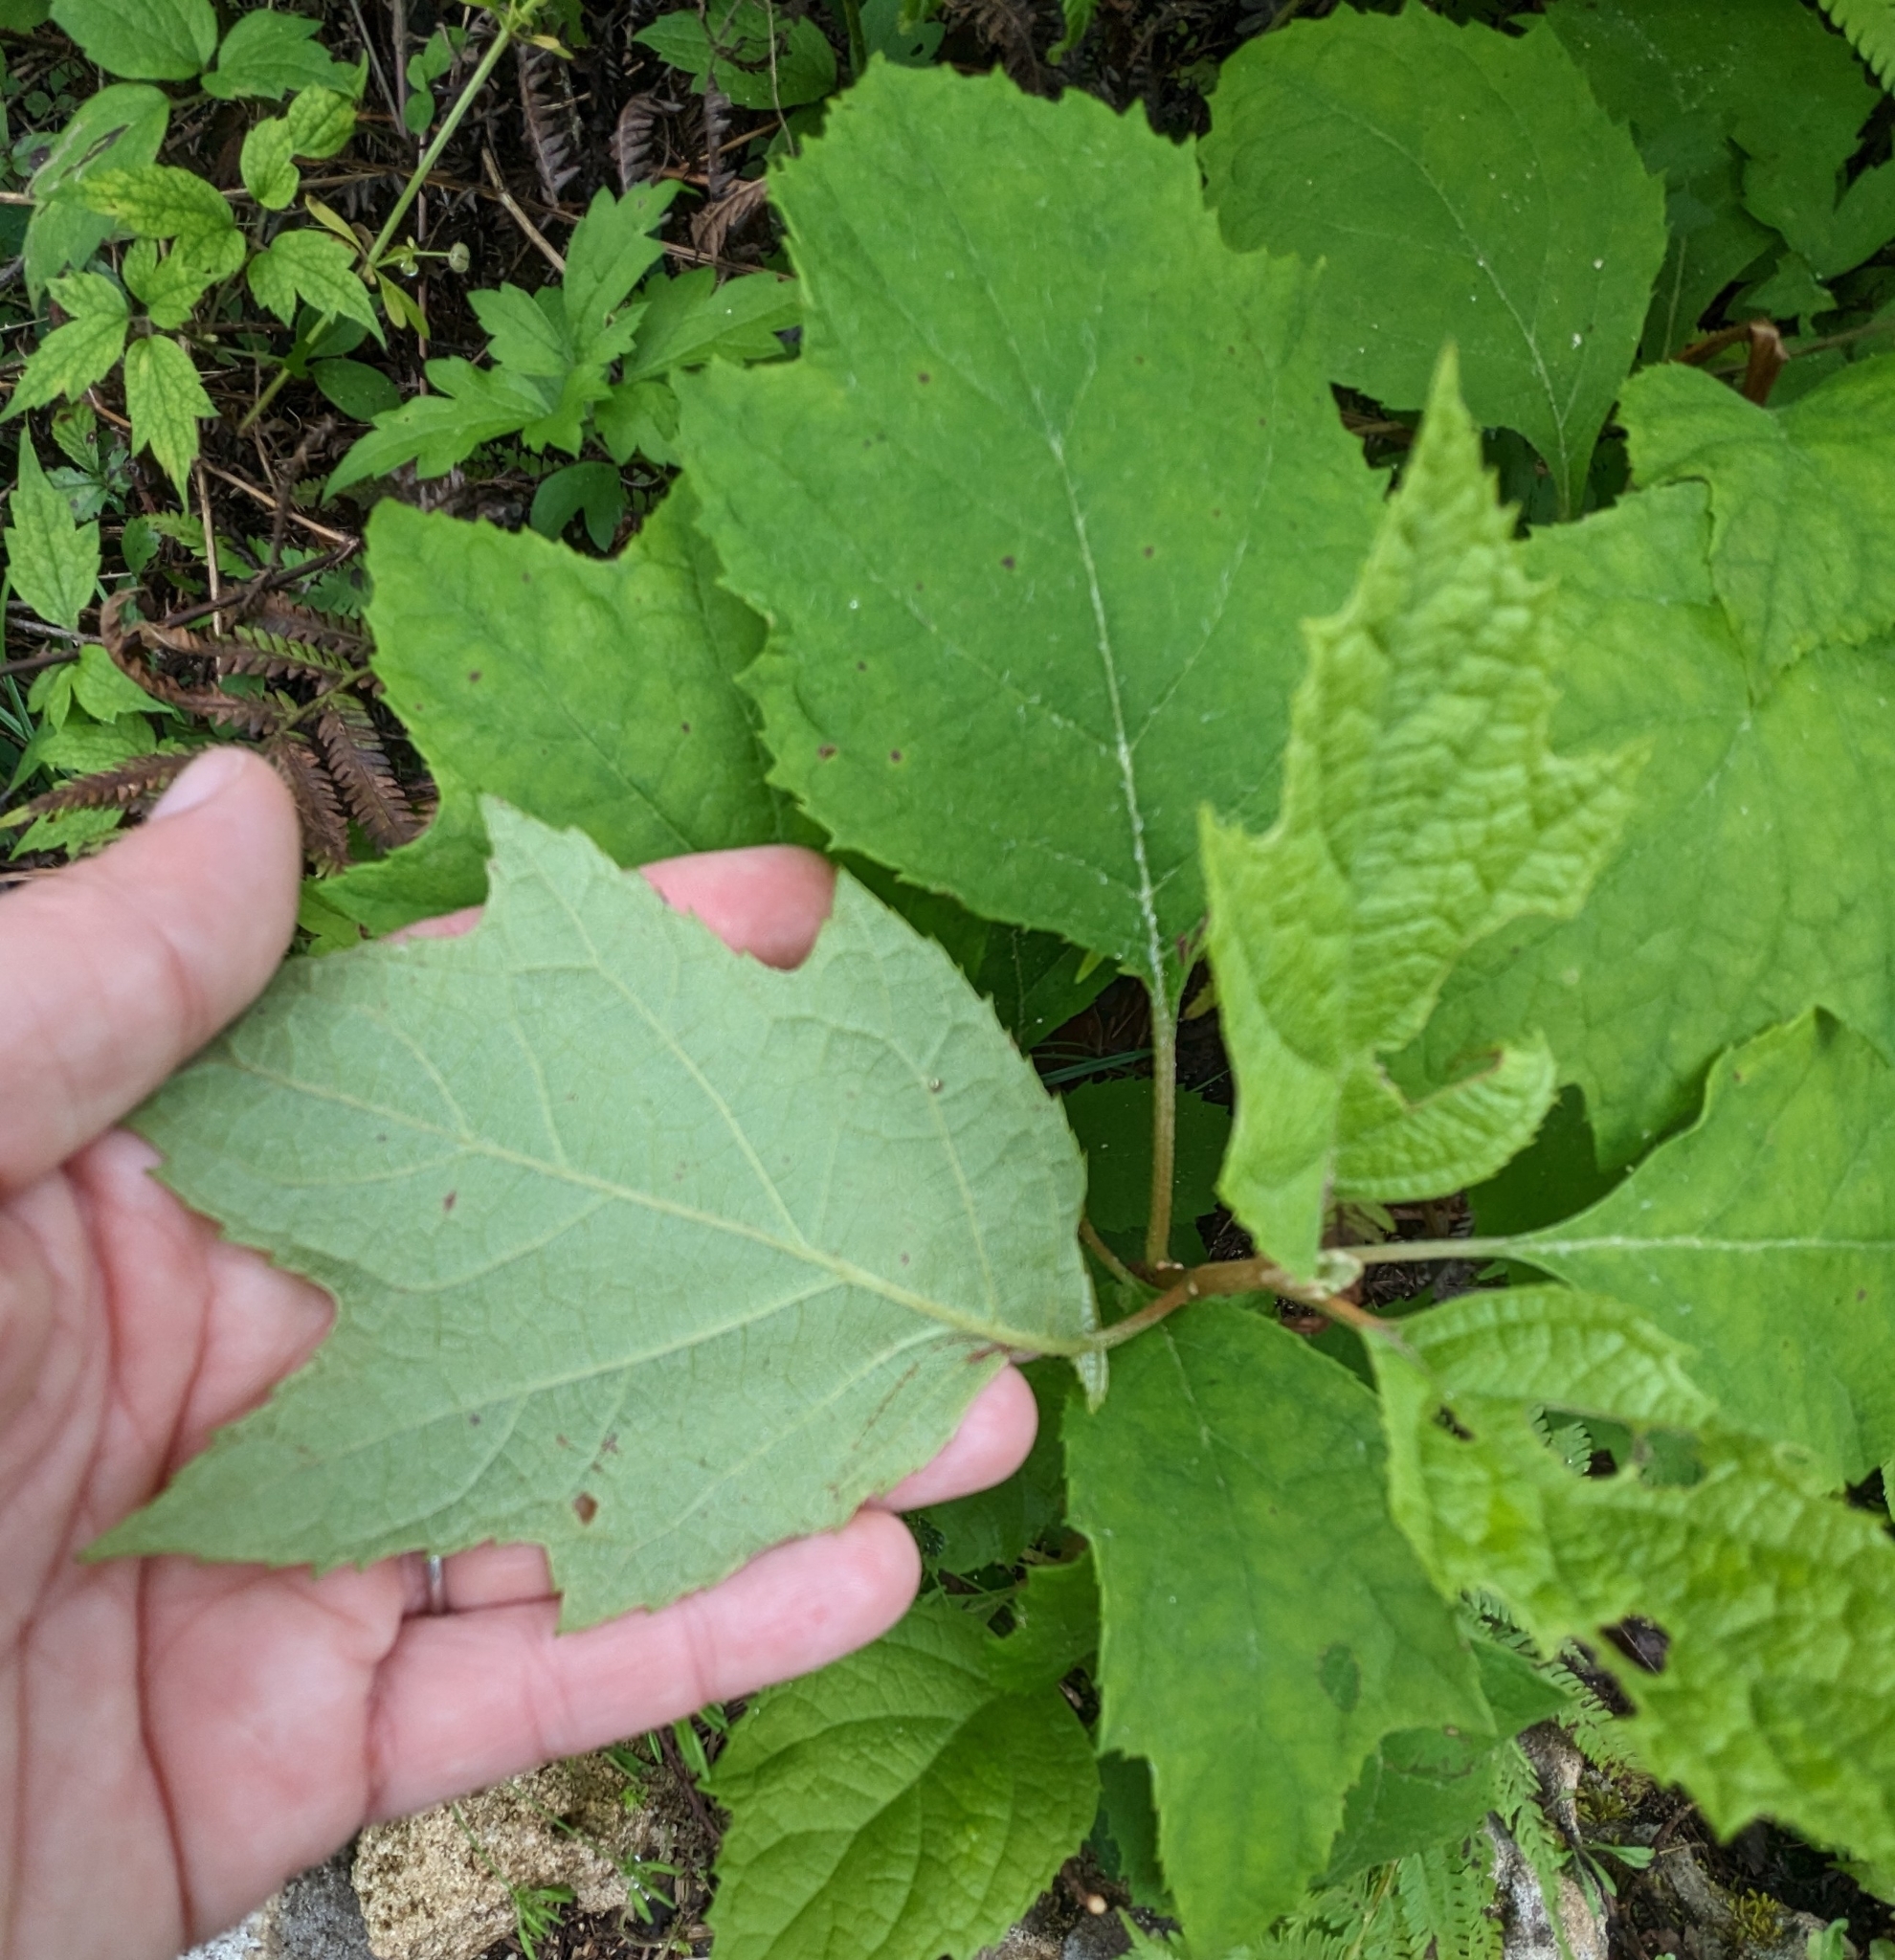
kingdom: Plantae
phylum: Tracheophyta
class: Magnoliopsida
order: Cornales
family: Hydrangeaceae
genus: Hydrangea
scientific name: Hydrangea quercifolia
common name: Oak-leaf hydrangea
